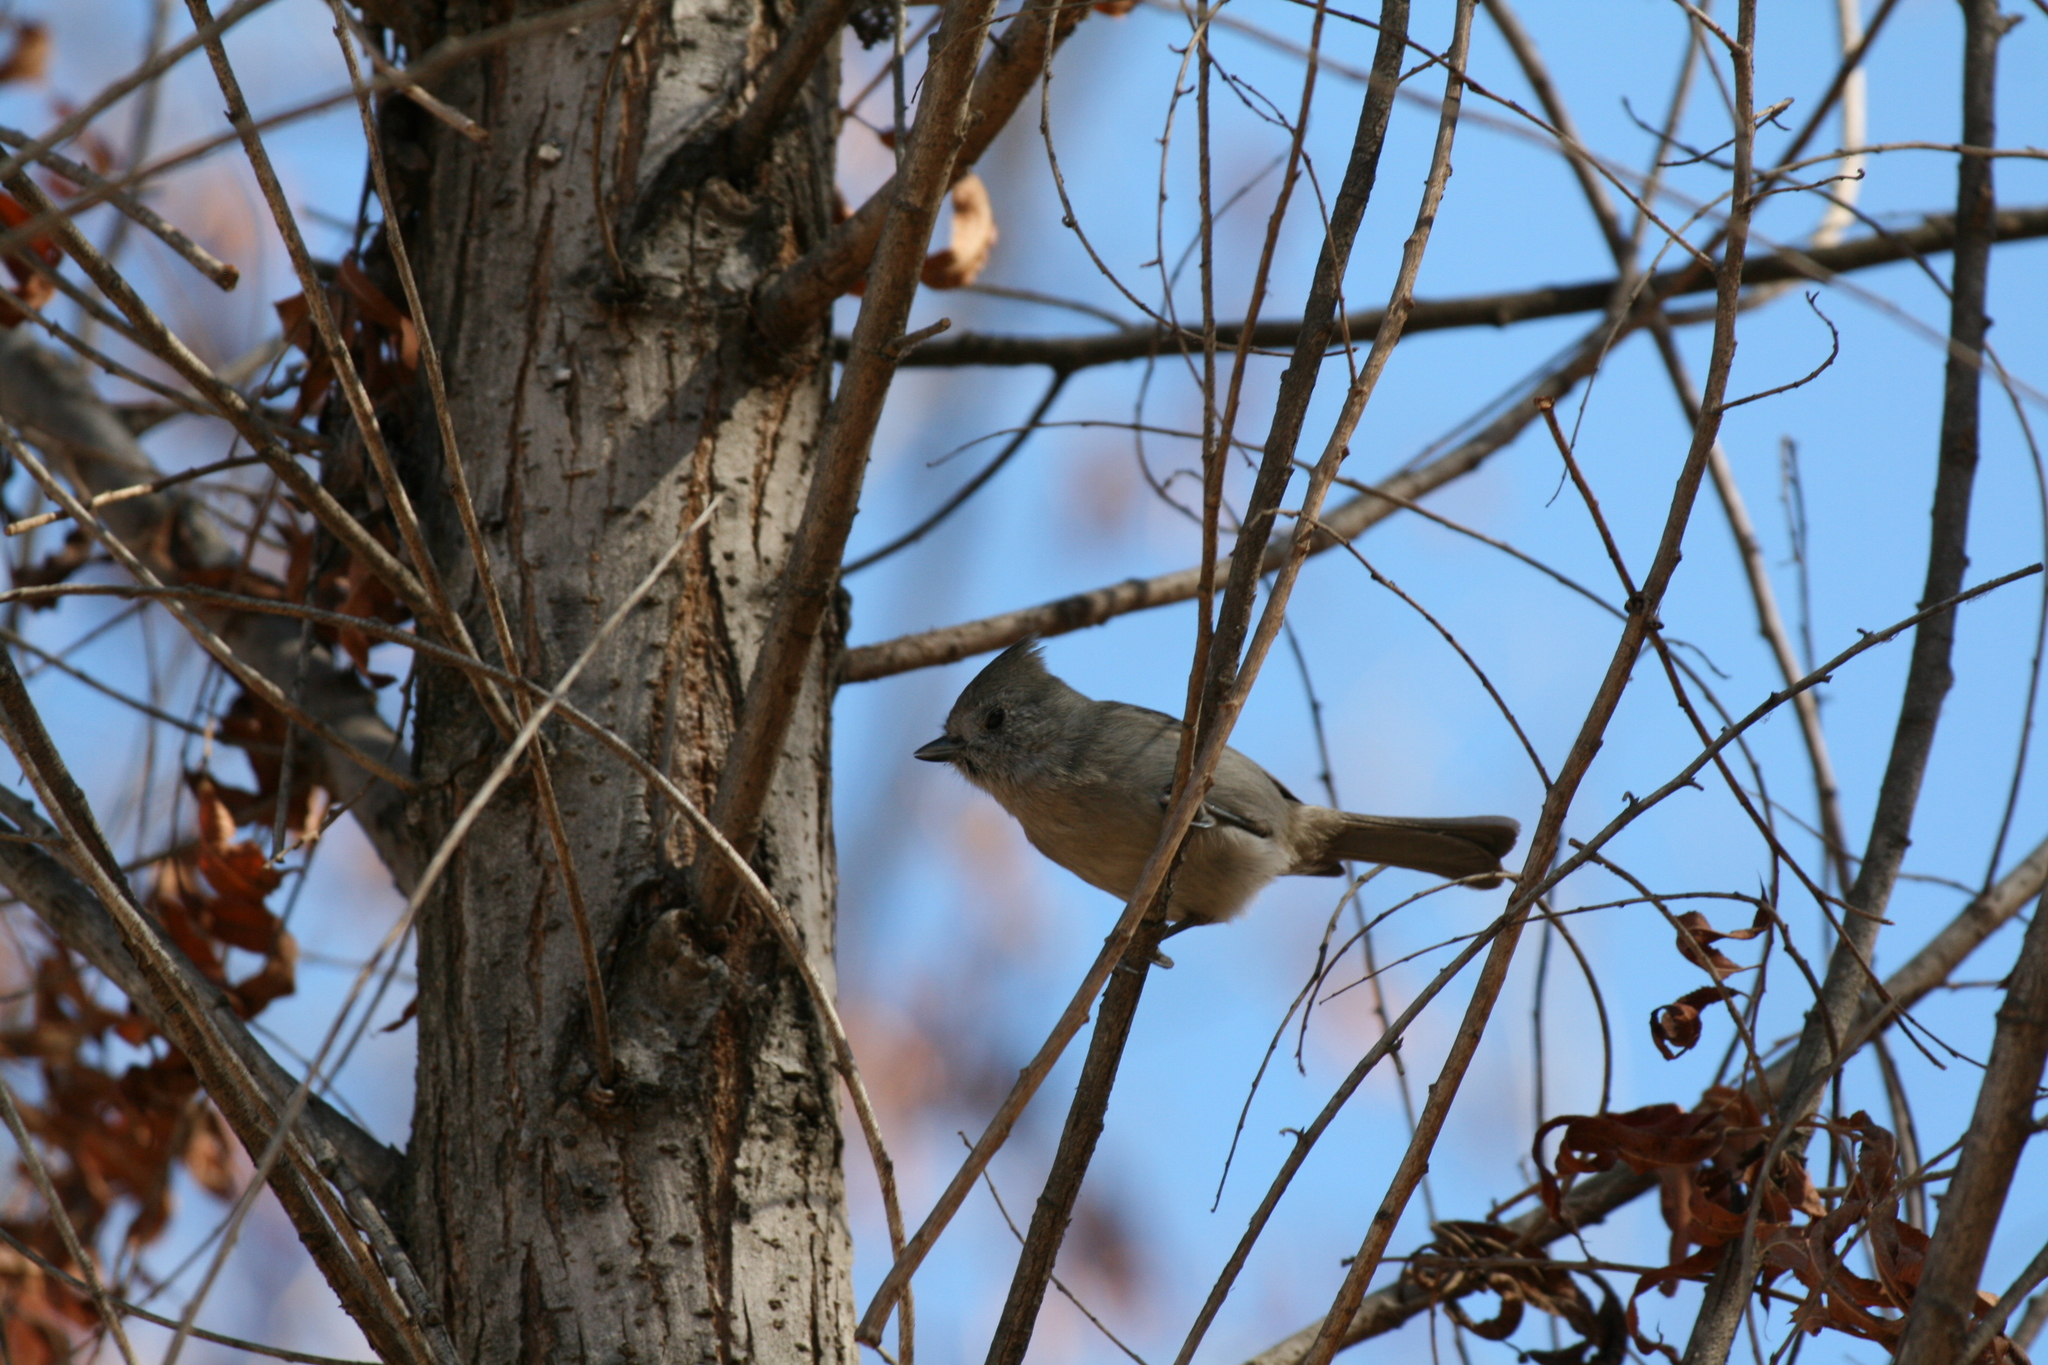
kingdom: Animalia
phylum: Chordata
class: Aves
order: Passeriformes
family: Paridae
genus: Baeolophus
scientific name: Baeolophus inornatus
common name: Oak titmouse
